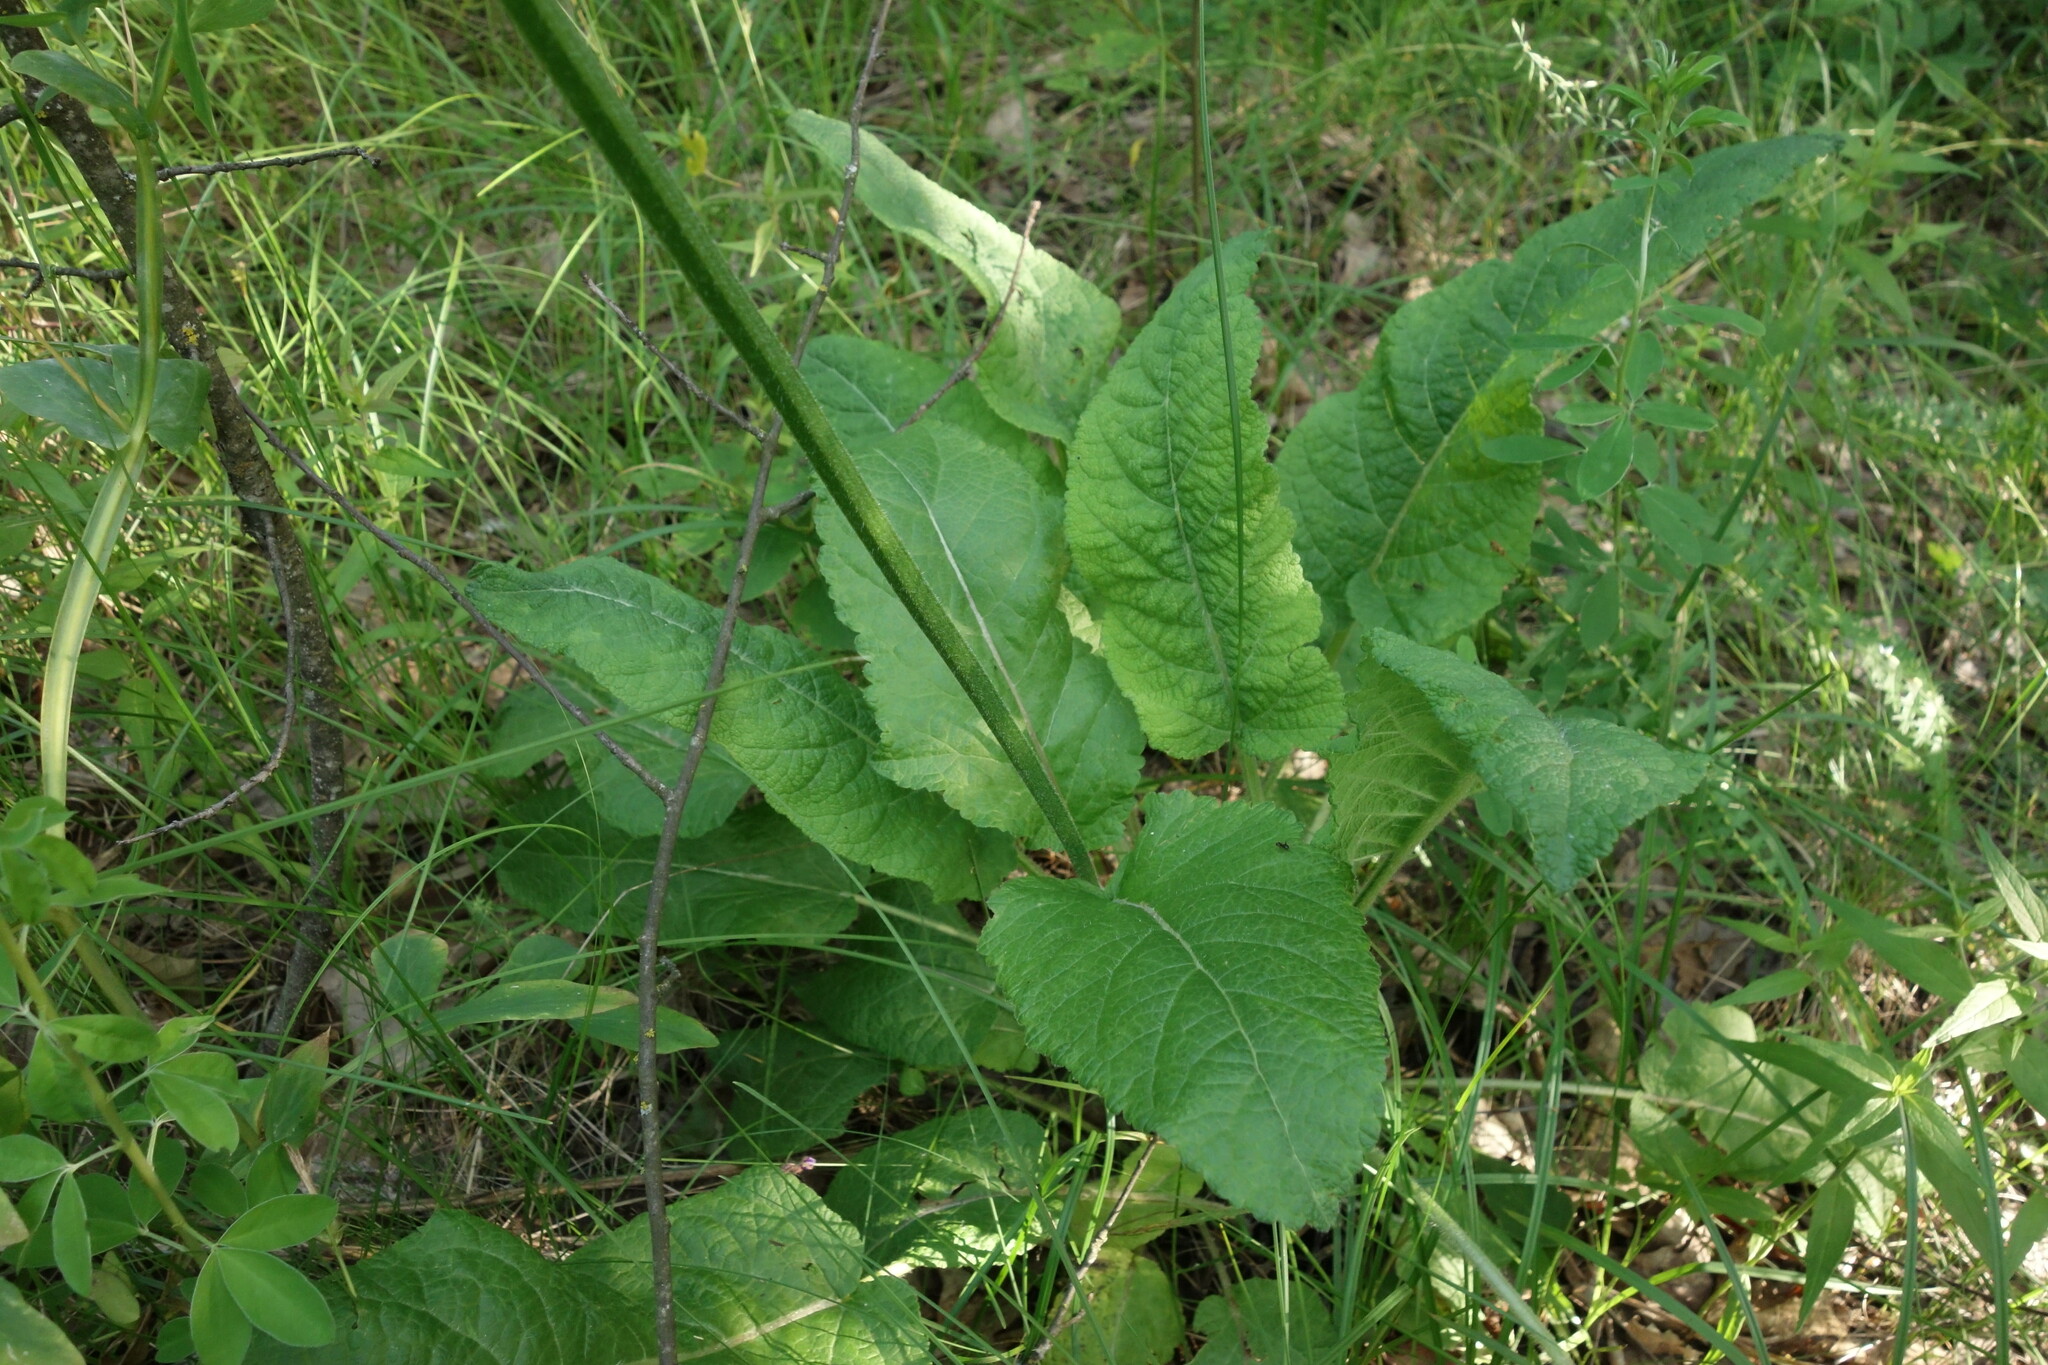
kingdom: Plantae
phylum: Tracheophyta
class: Magnoliopsida
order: Lamiales
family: Lamiaceae
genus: Salvia
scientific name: Salvia pratensis
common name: Meadow sage
